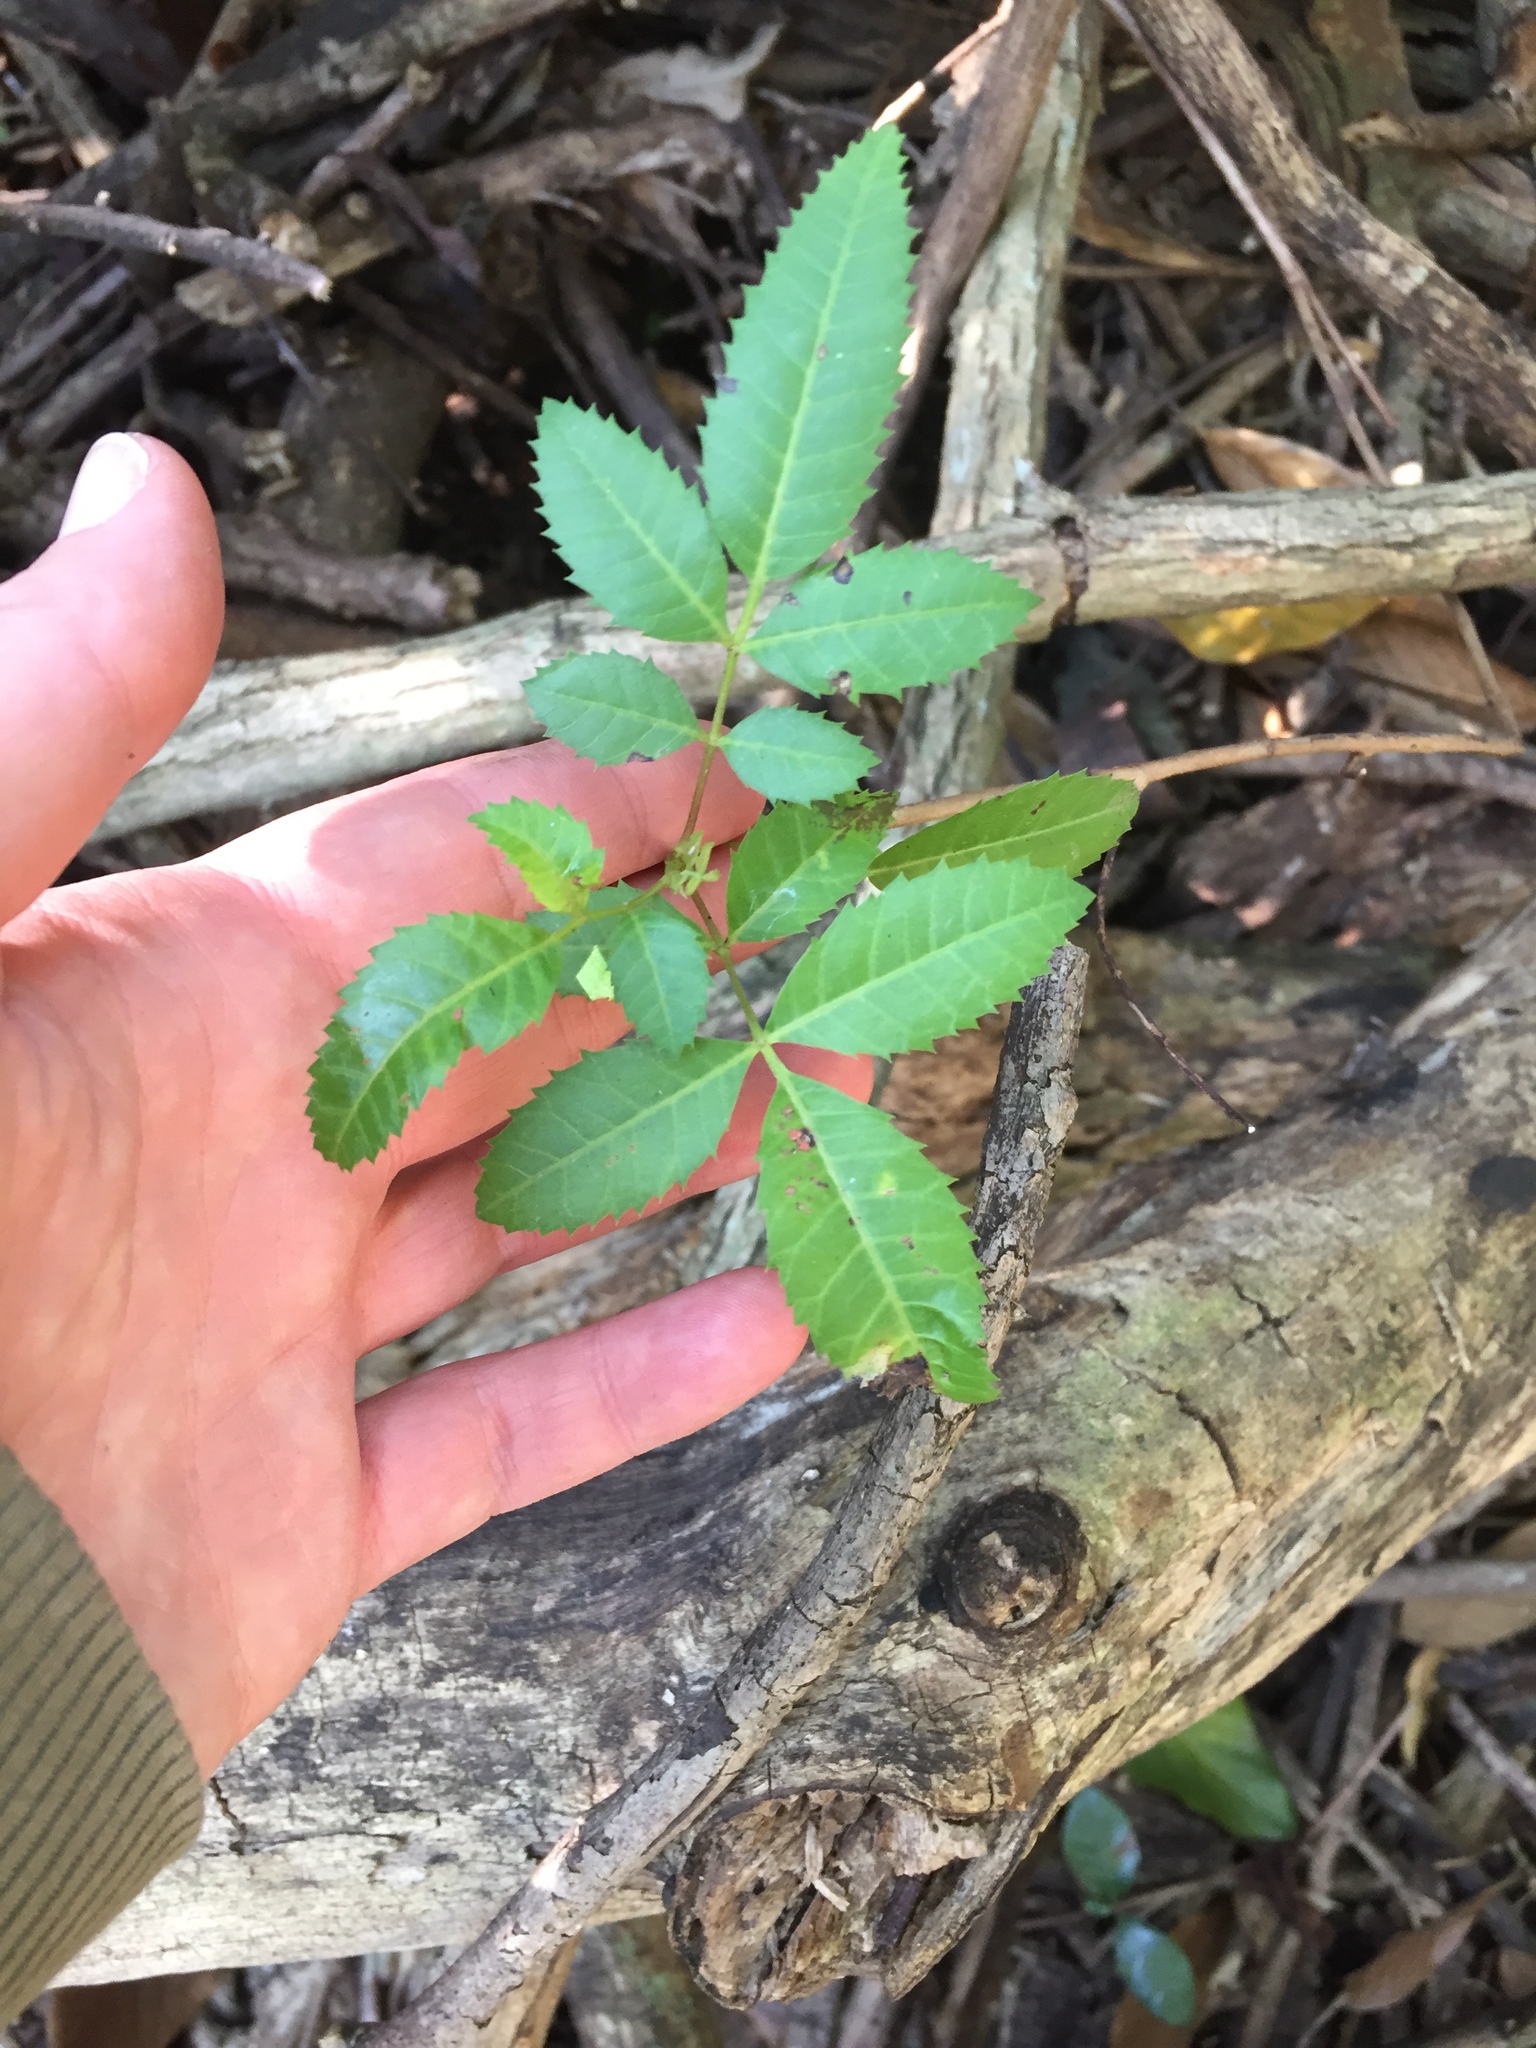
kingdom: Plantae
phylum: Tracheophyta
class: Magnoliopsida
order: Sapindales
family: Anacardiaceae
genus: Schinus
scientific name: Schinus terebinthifolia
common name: Brazilian peppertree
